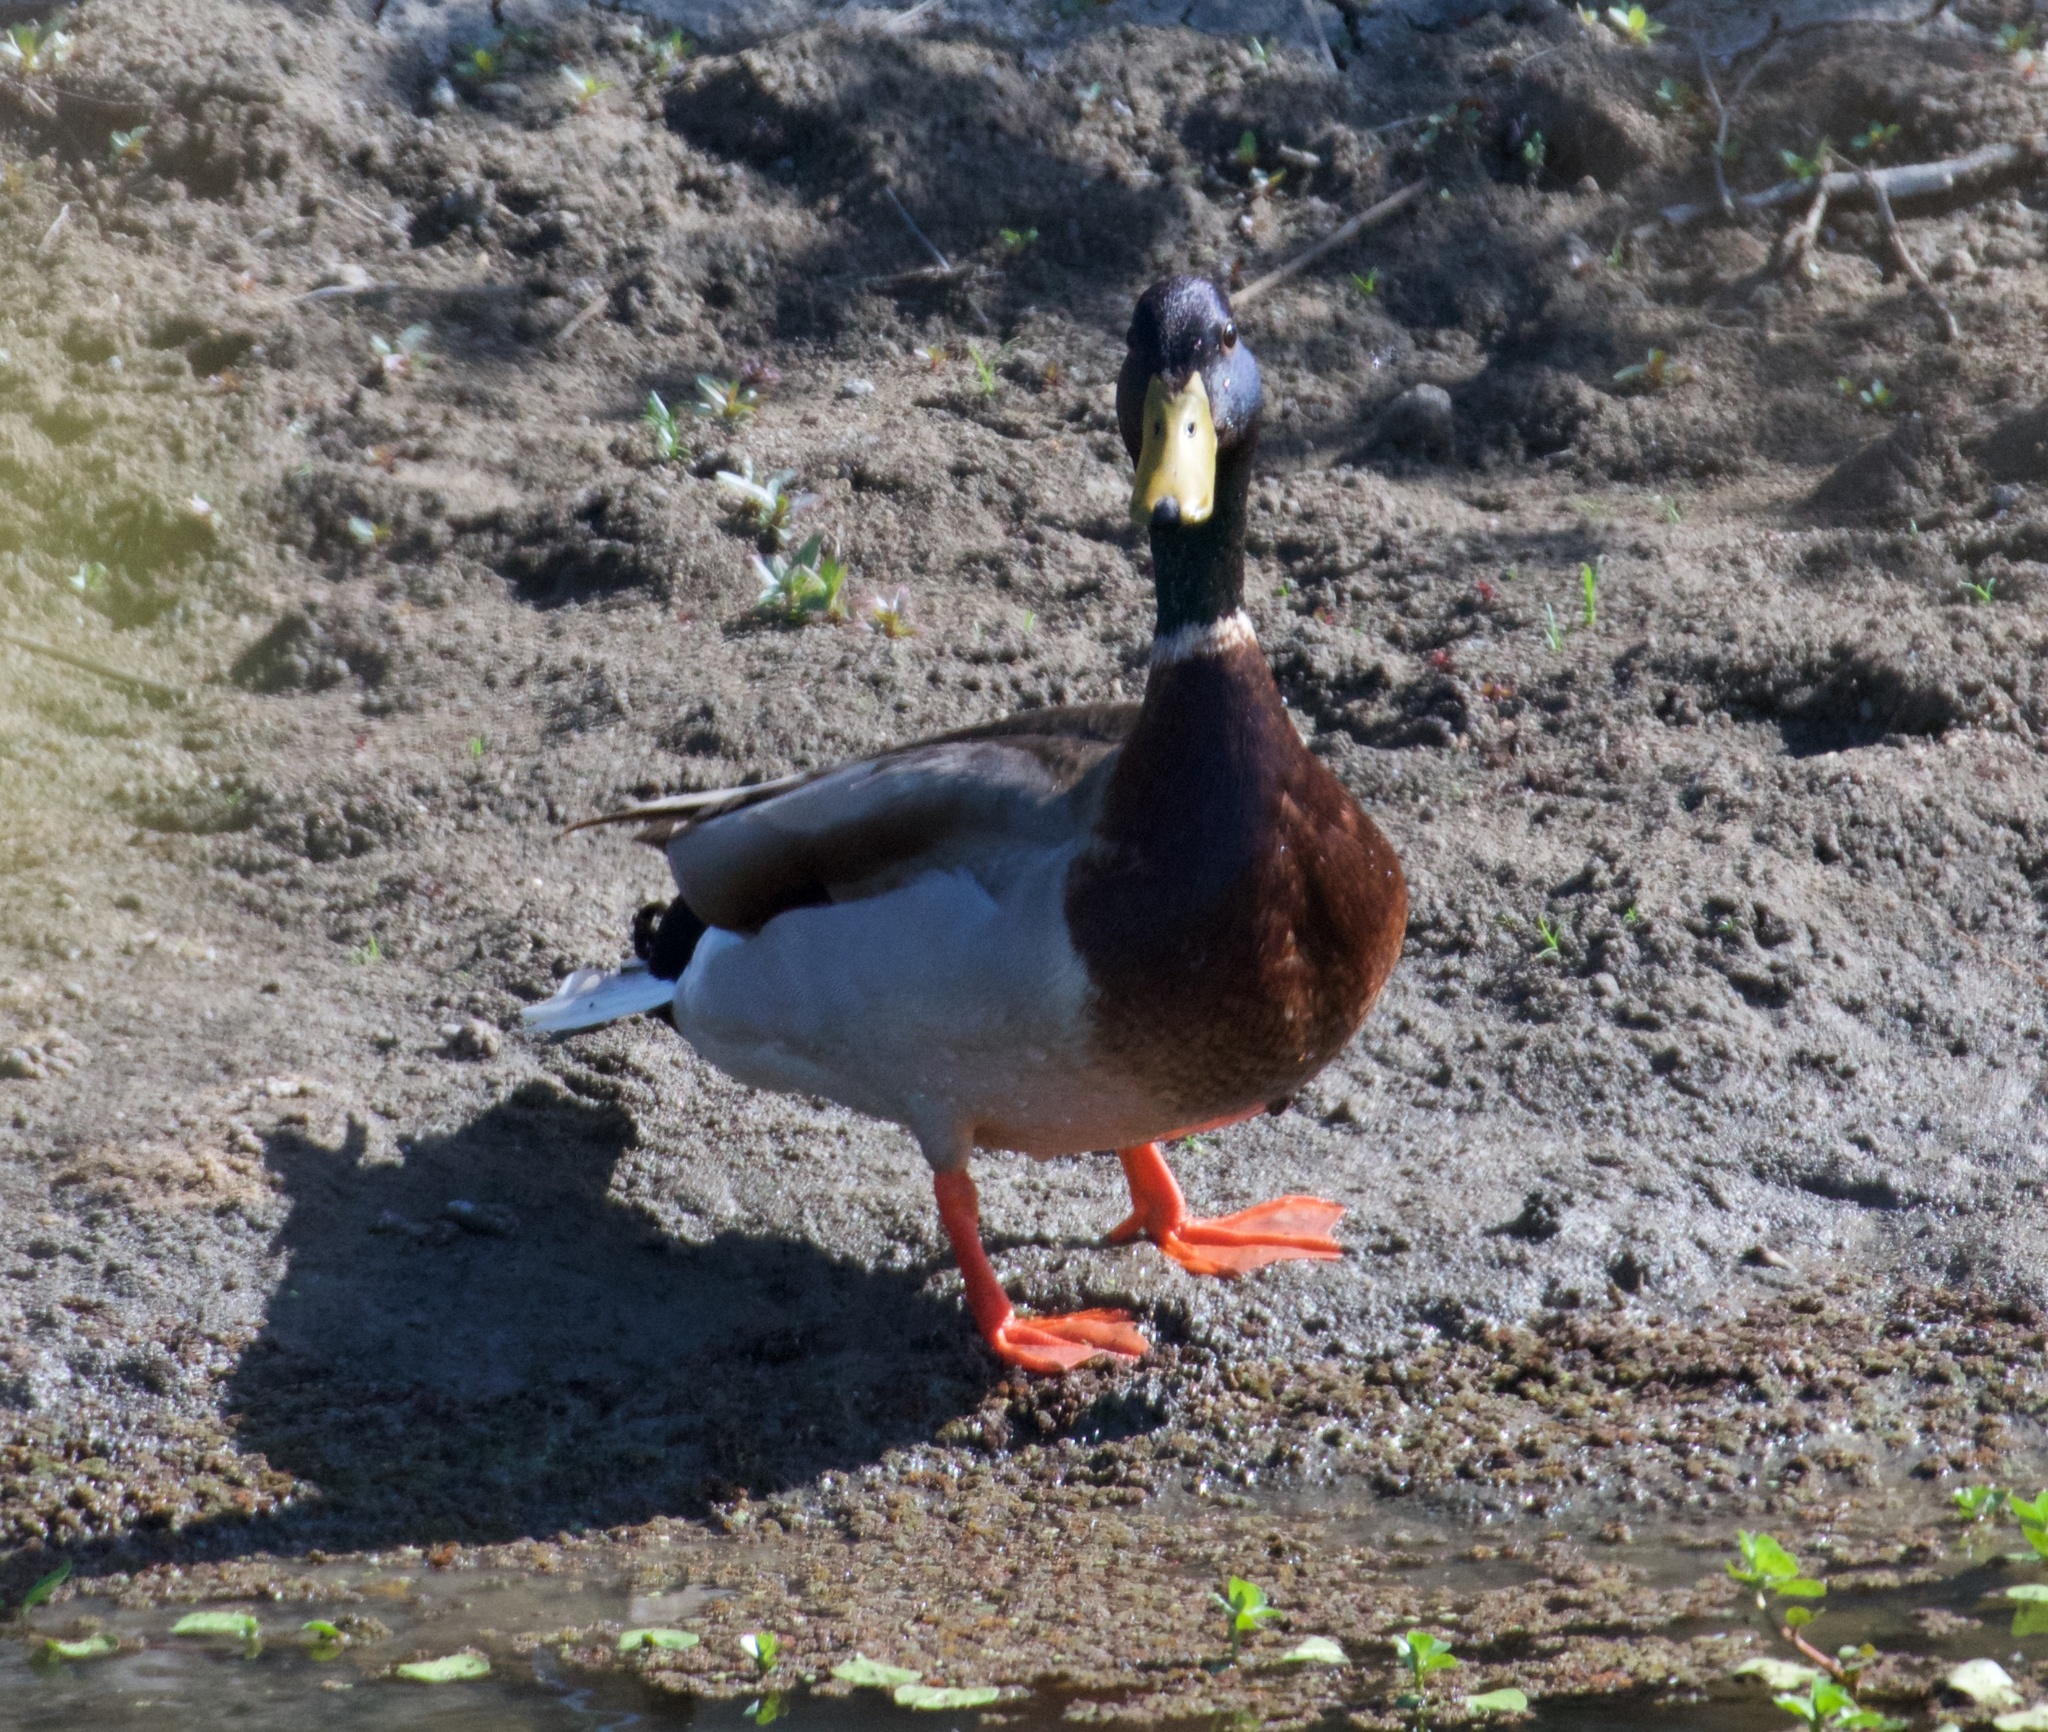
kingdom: Animalia
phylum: Chordata
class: Aves
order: Anseriformes
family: Anatidae
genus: Anas
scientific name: Anas platyrhynchos
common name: Mallard
